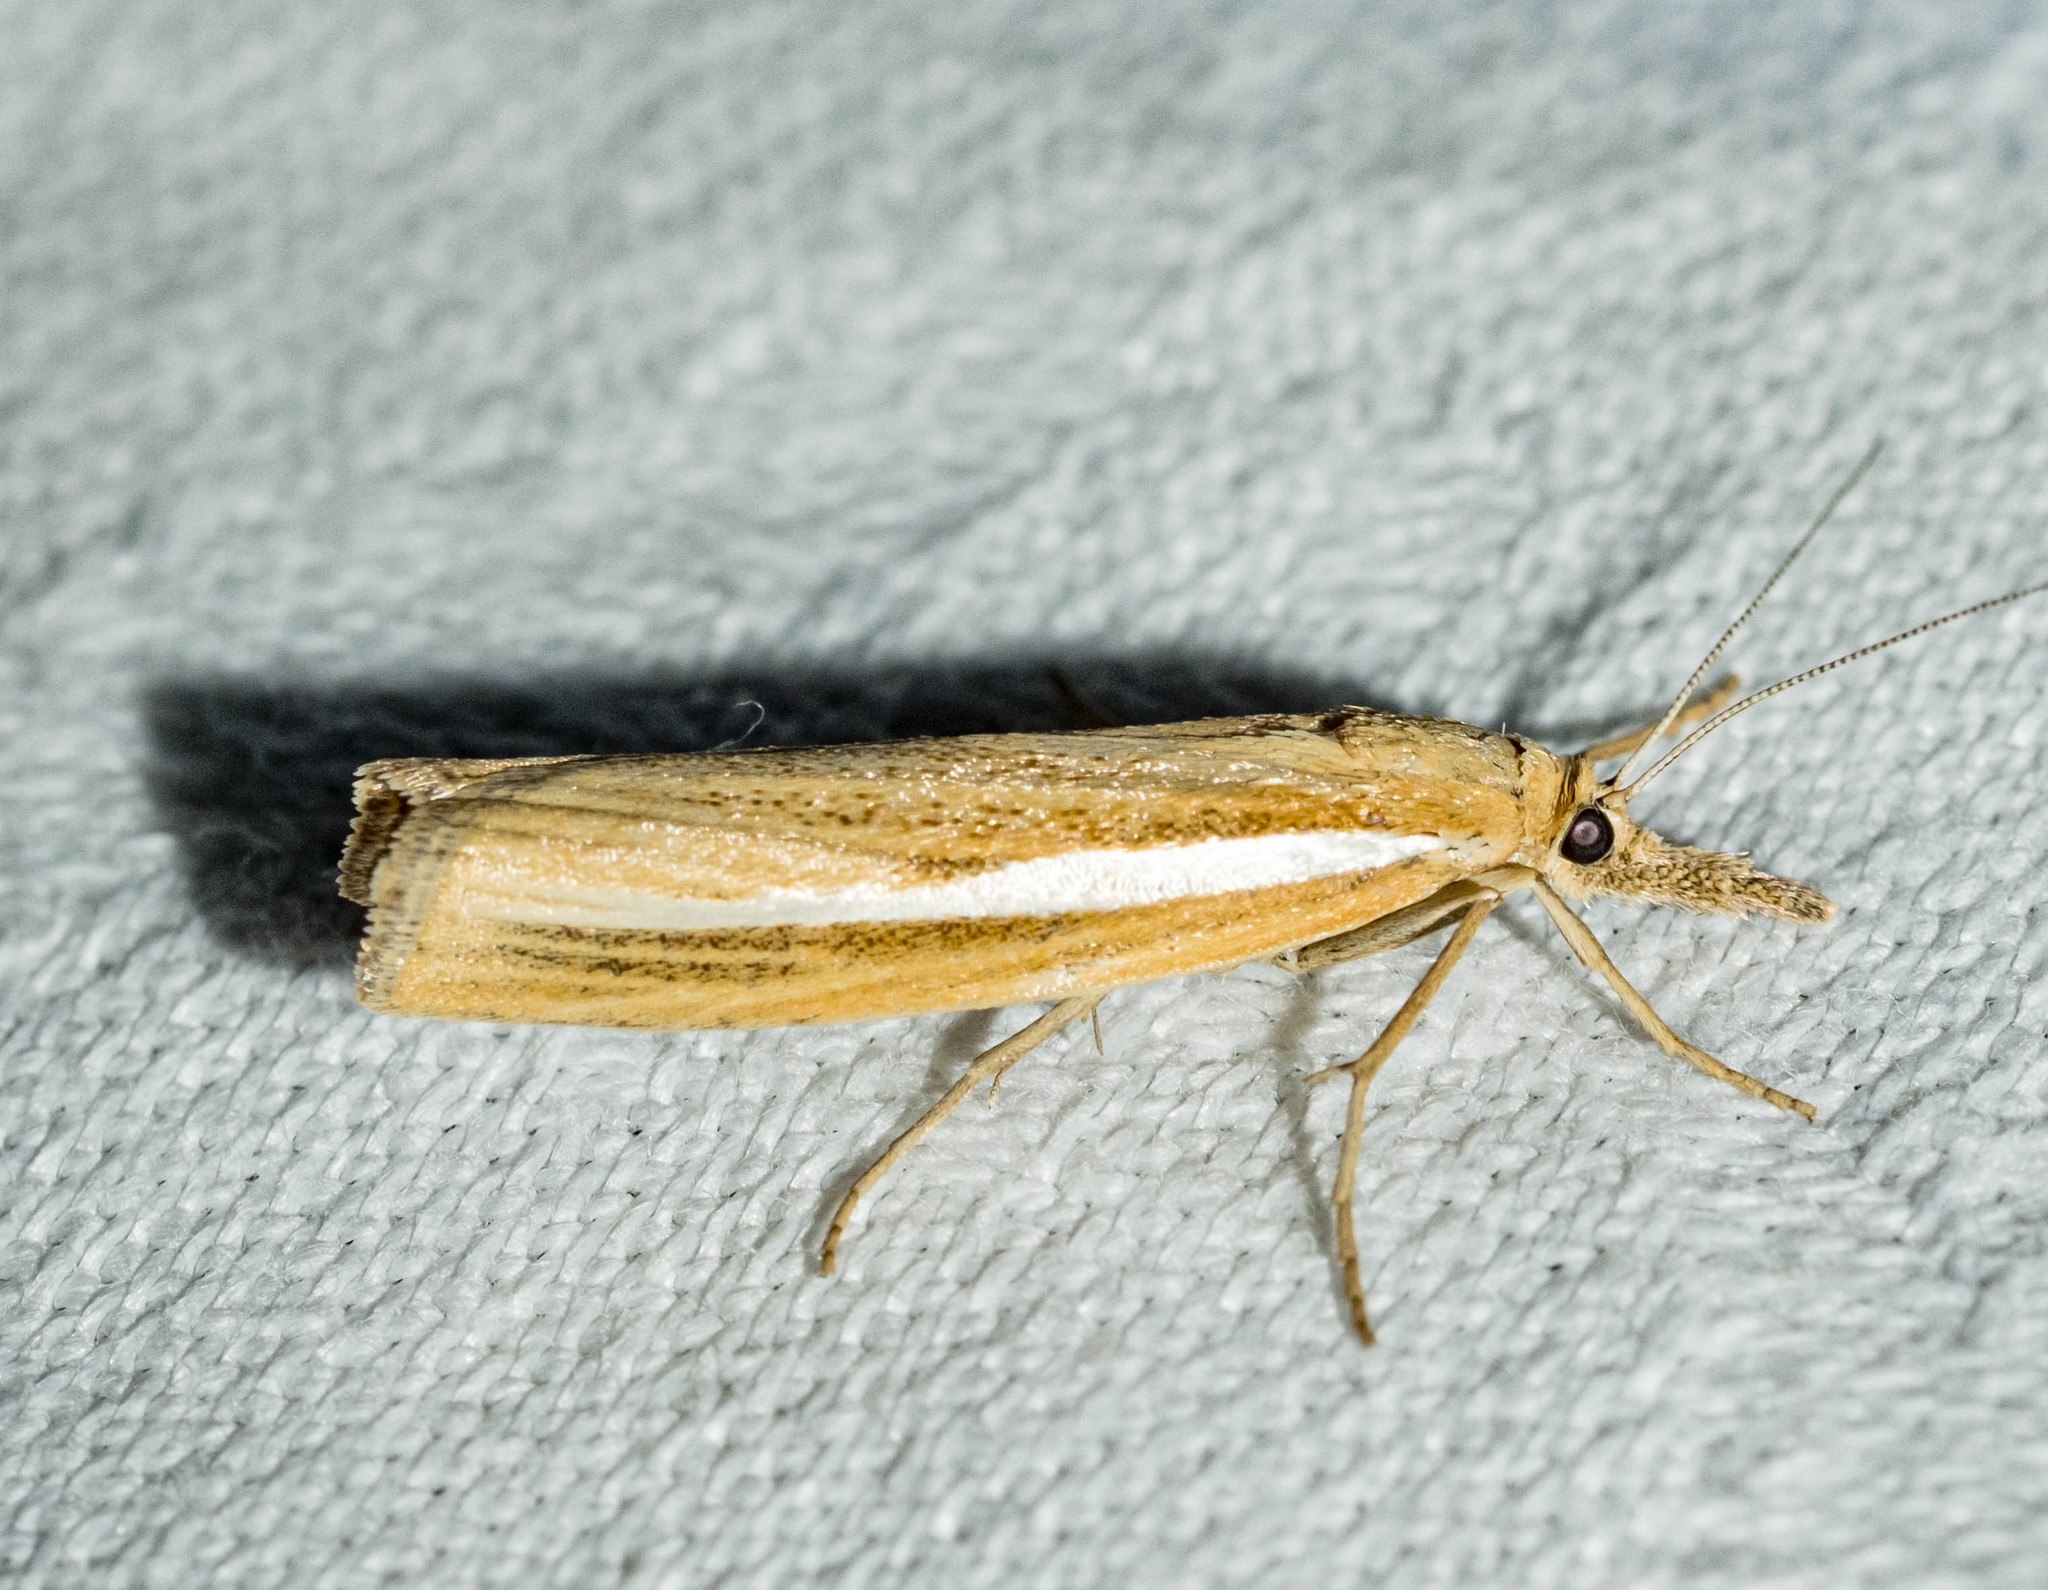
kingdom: Animalia
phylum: Arthropoda
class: Insecta
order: Lepidoptera
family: Crambidae
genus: Agriphila
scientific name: Agriphila tristellus
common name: Common grass-veneer
